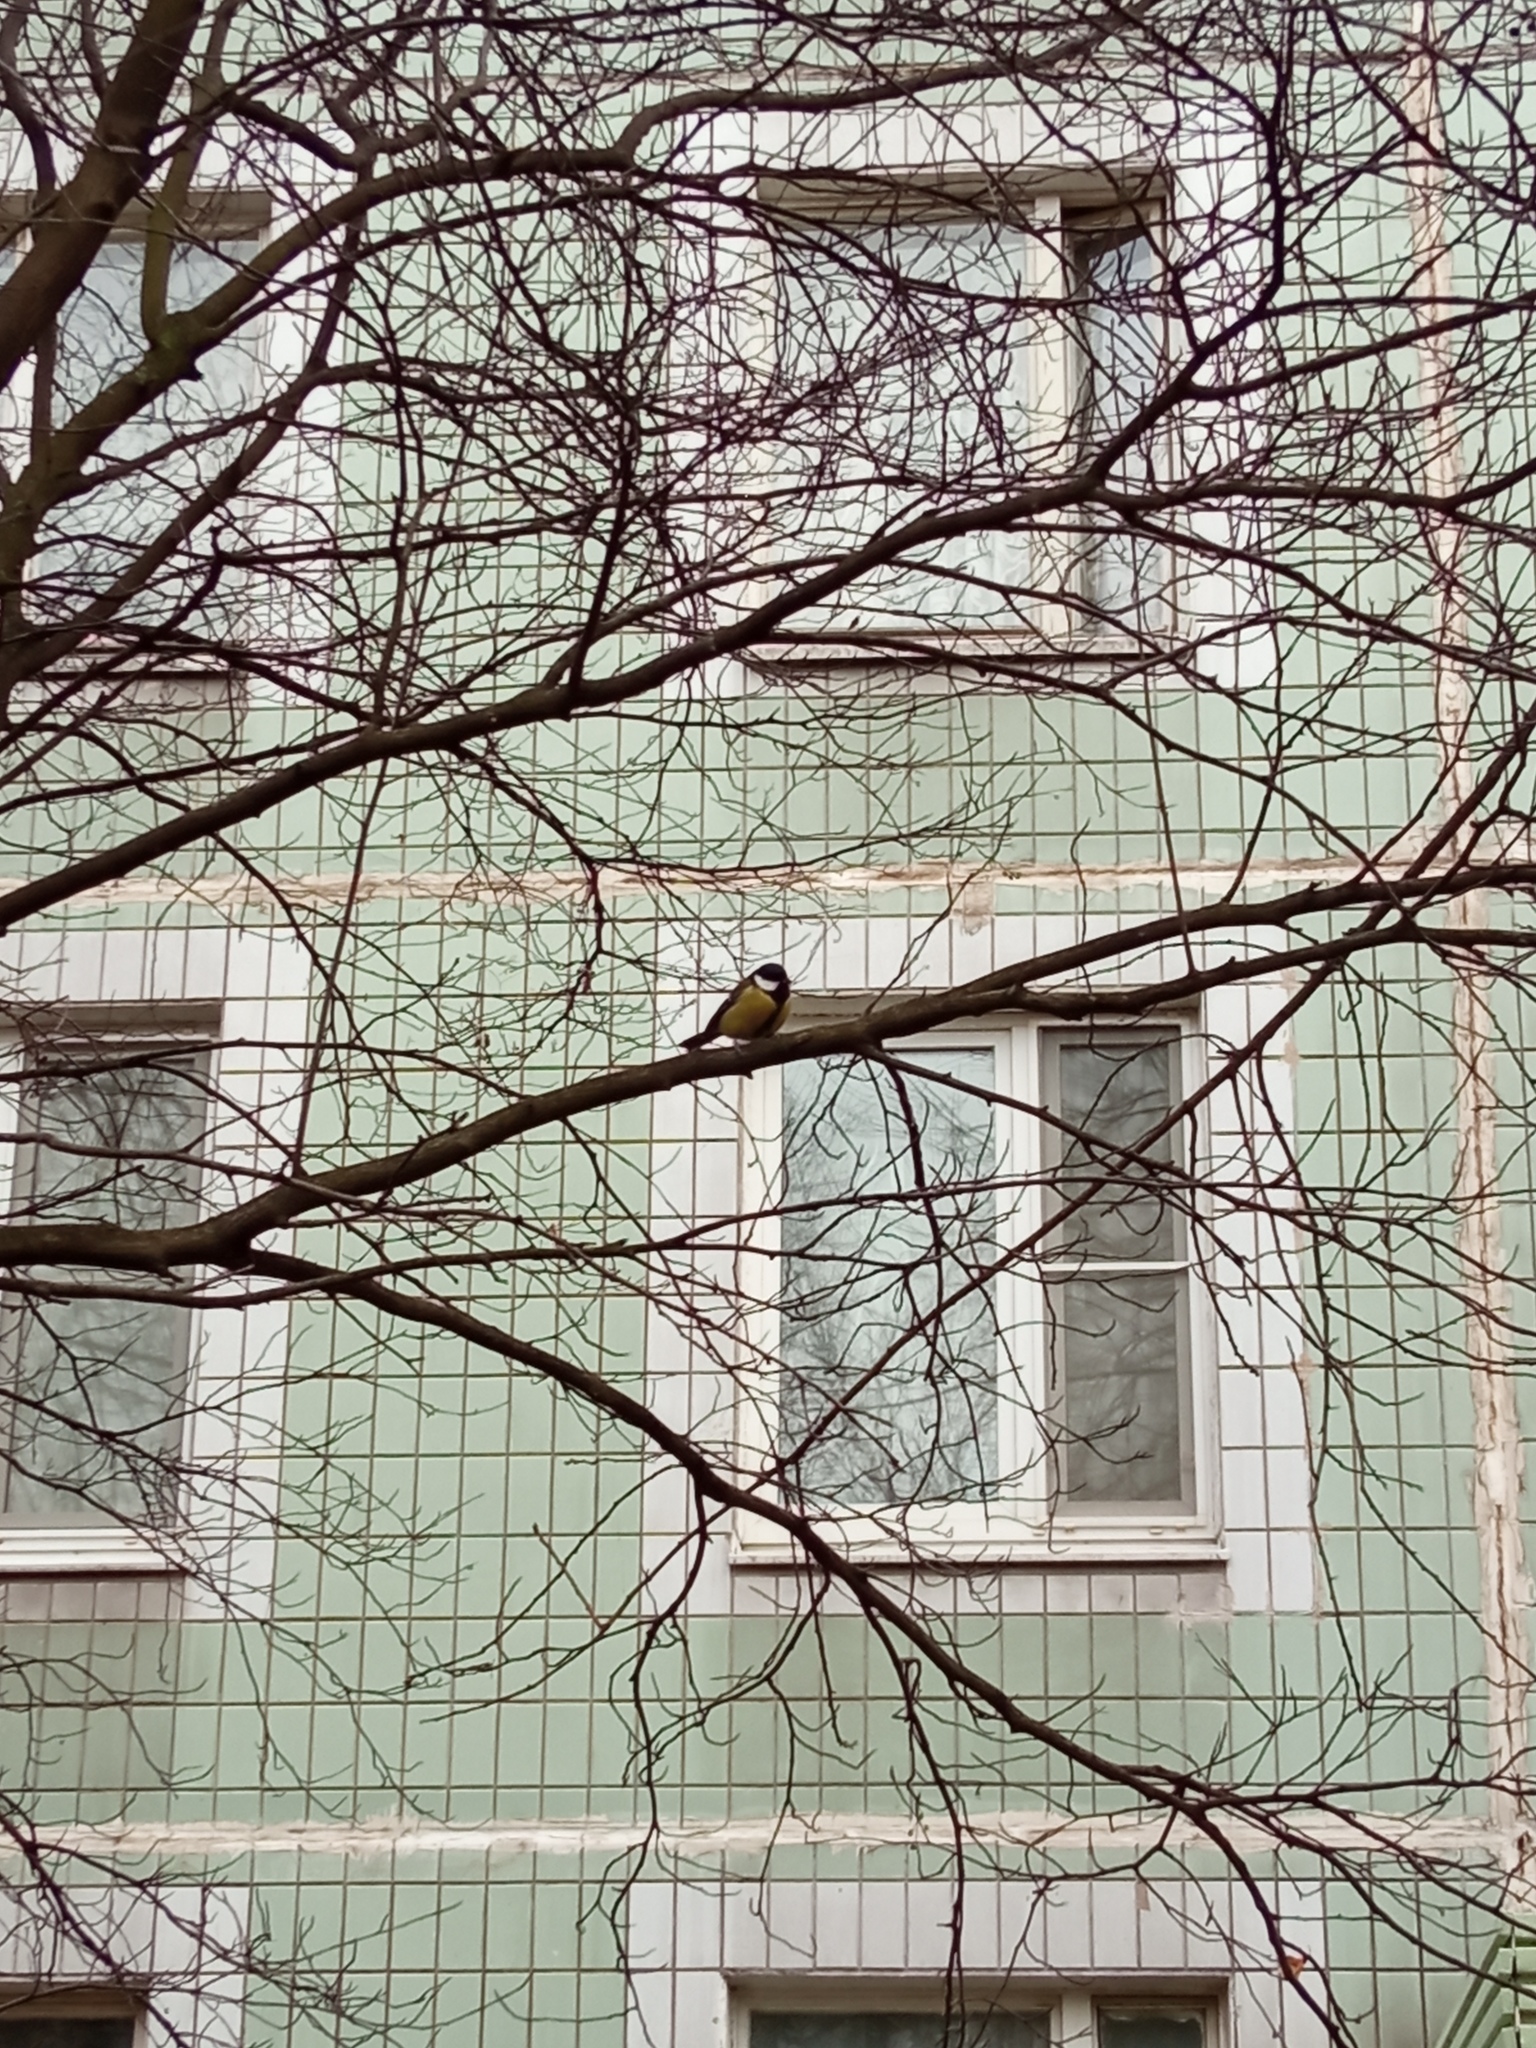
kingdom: Animalia
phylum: Chordata
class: Aves
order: Passeriformes
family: Paridae
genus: Parus
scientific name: Parus major
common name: Great tit
